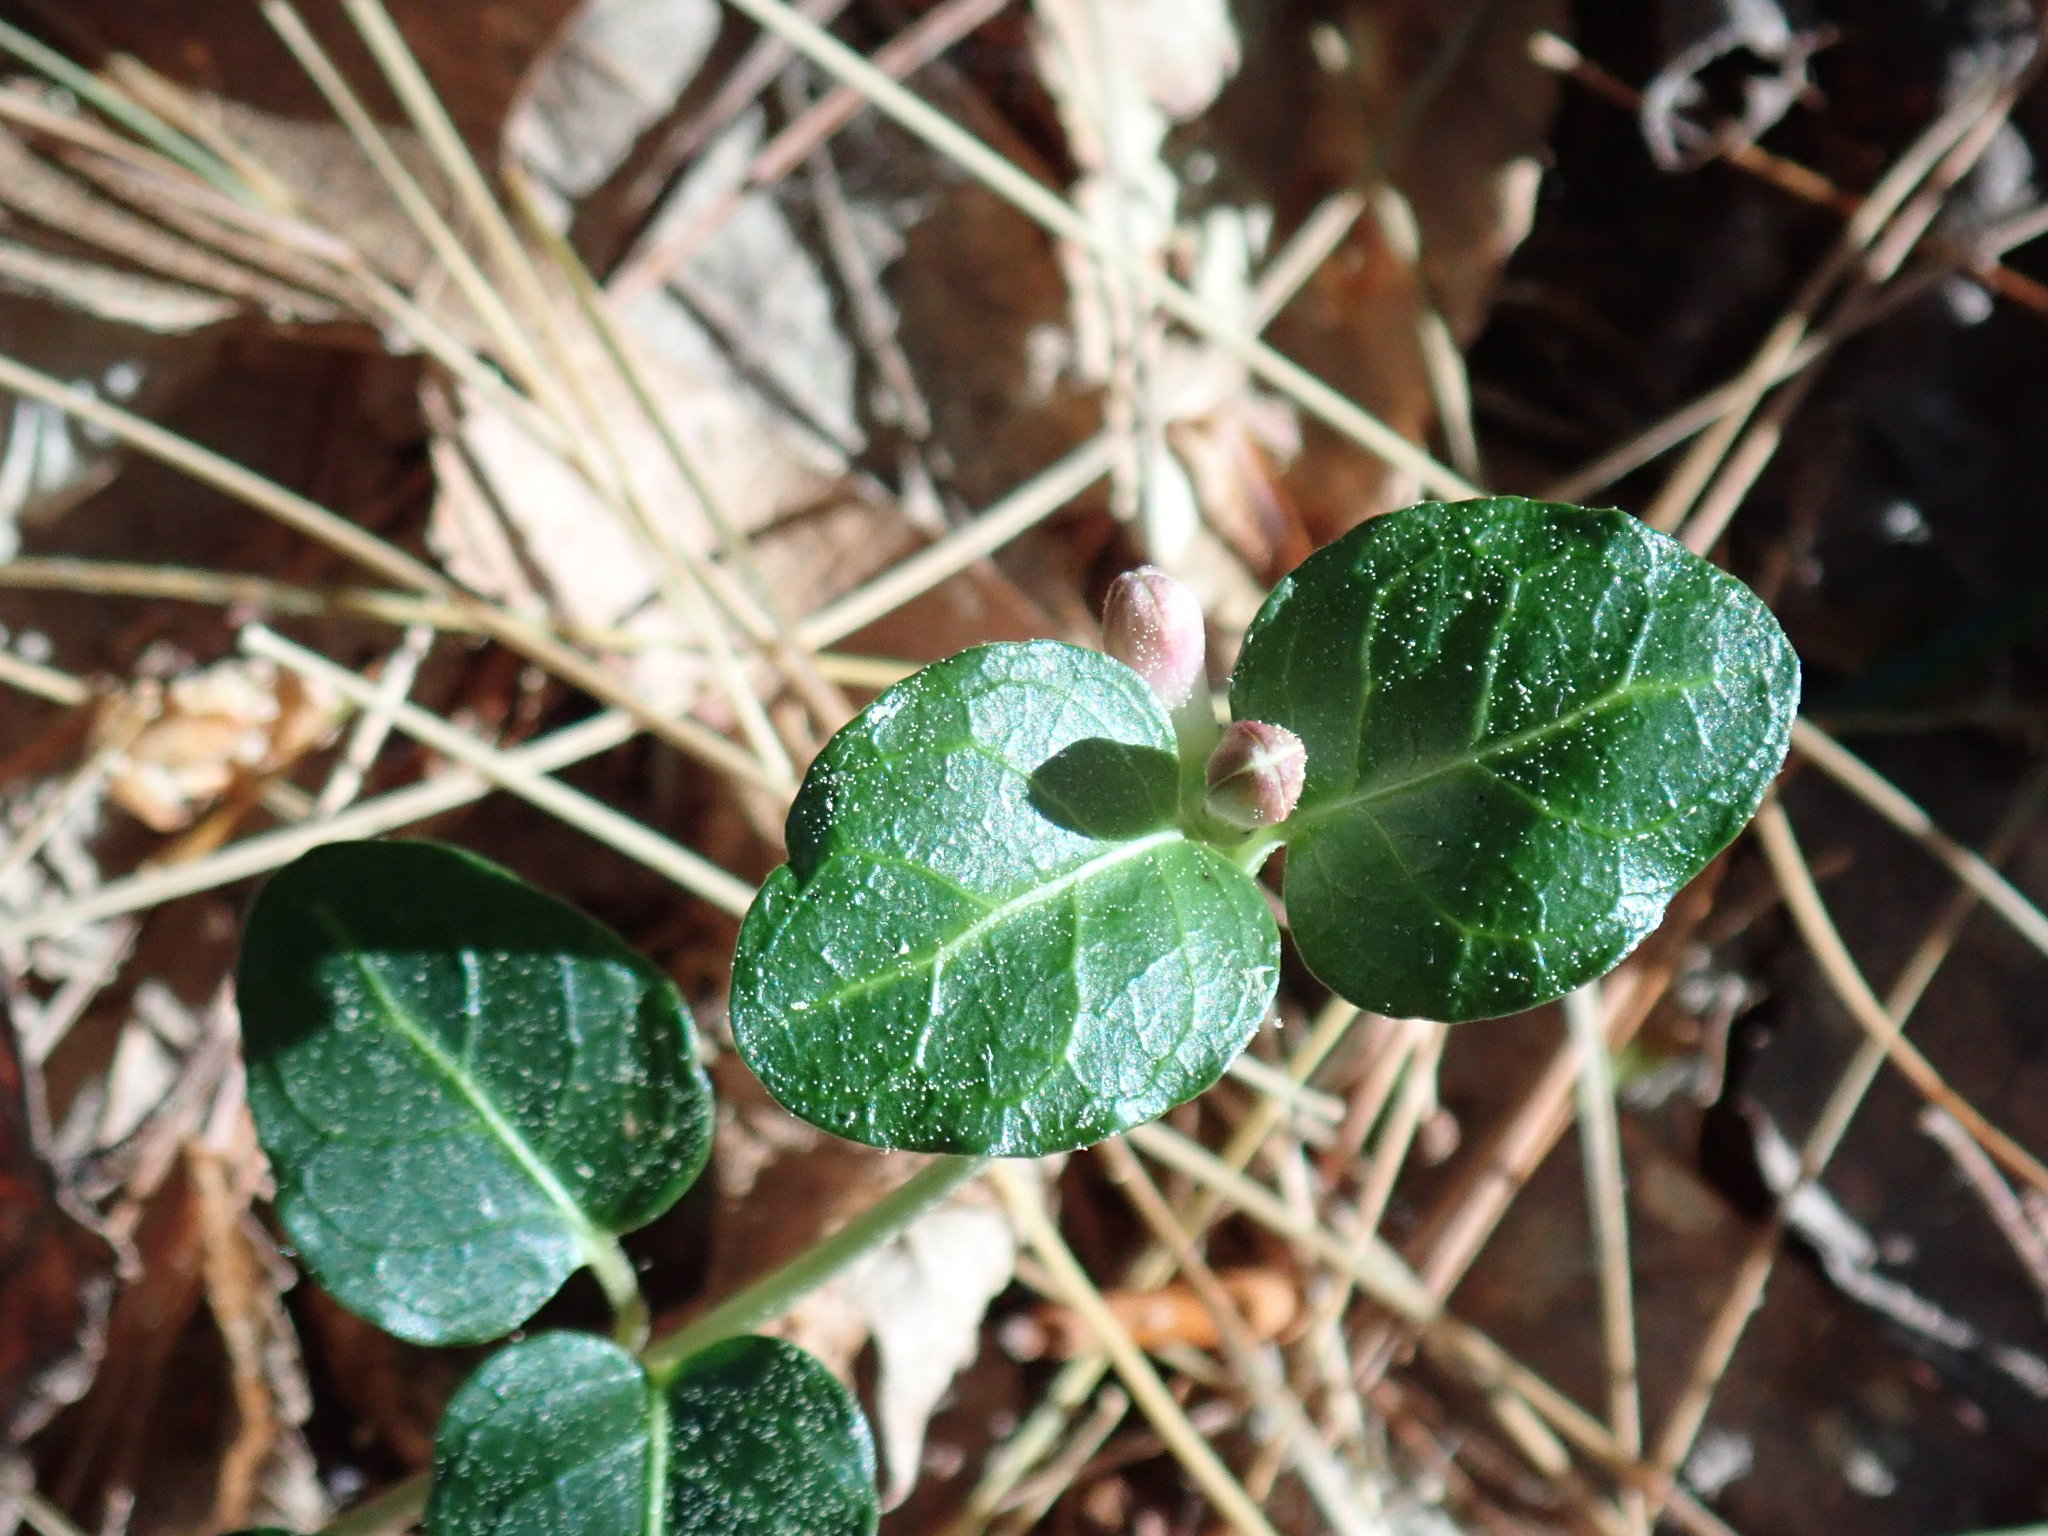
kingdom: Plantae
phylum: Tracheophyta
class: Magnoliopsida
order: Gentianales
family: Rubiaceae
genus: Mitchella
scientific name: Mitchella repens
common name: Partridge-berry
